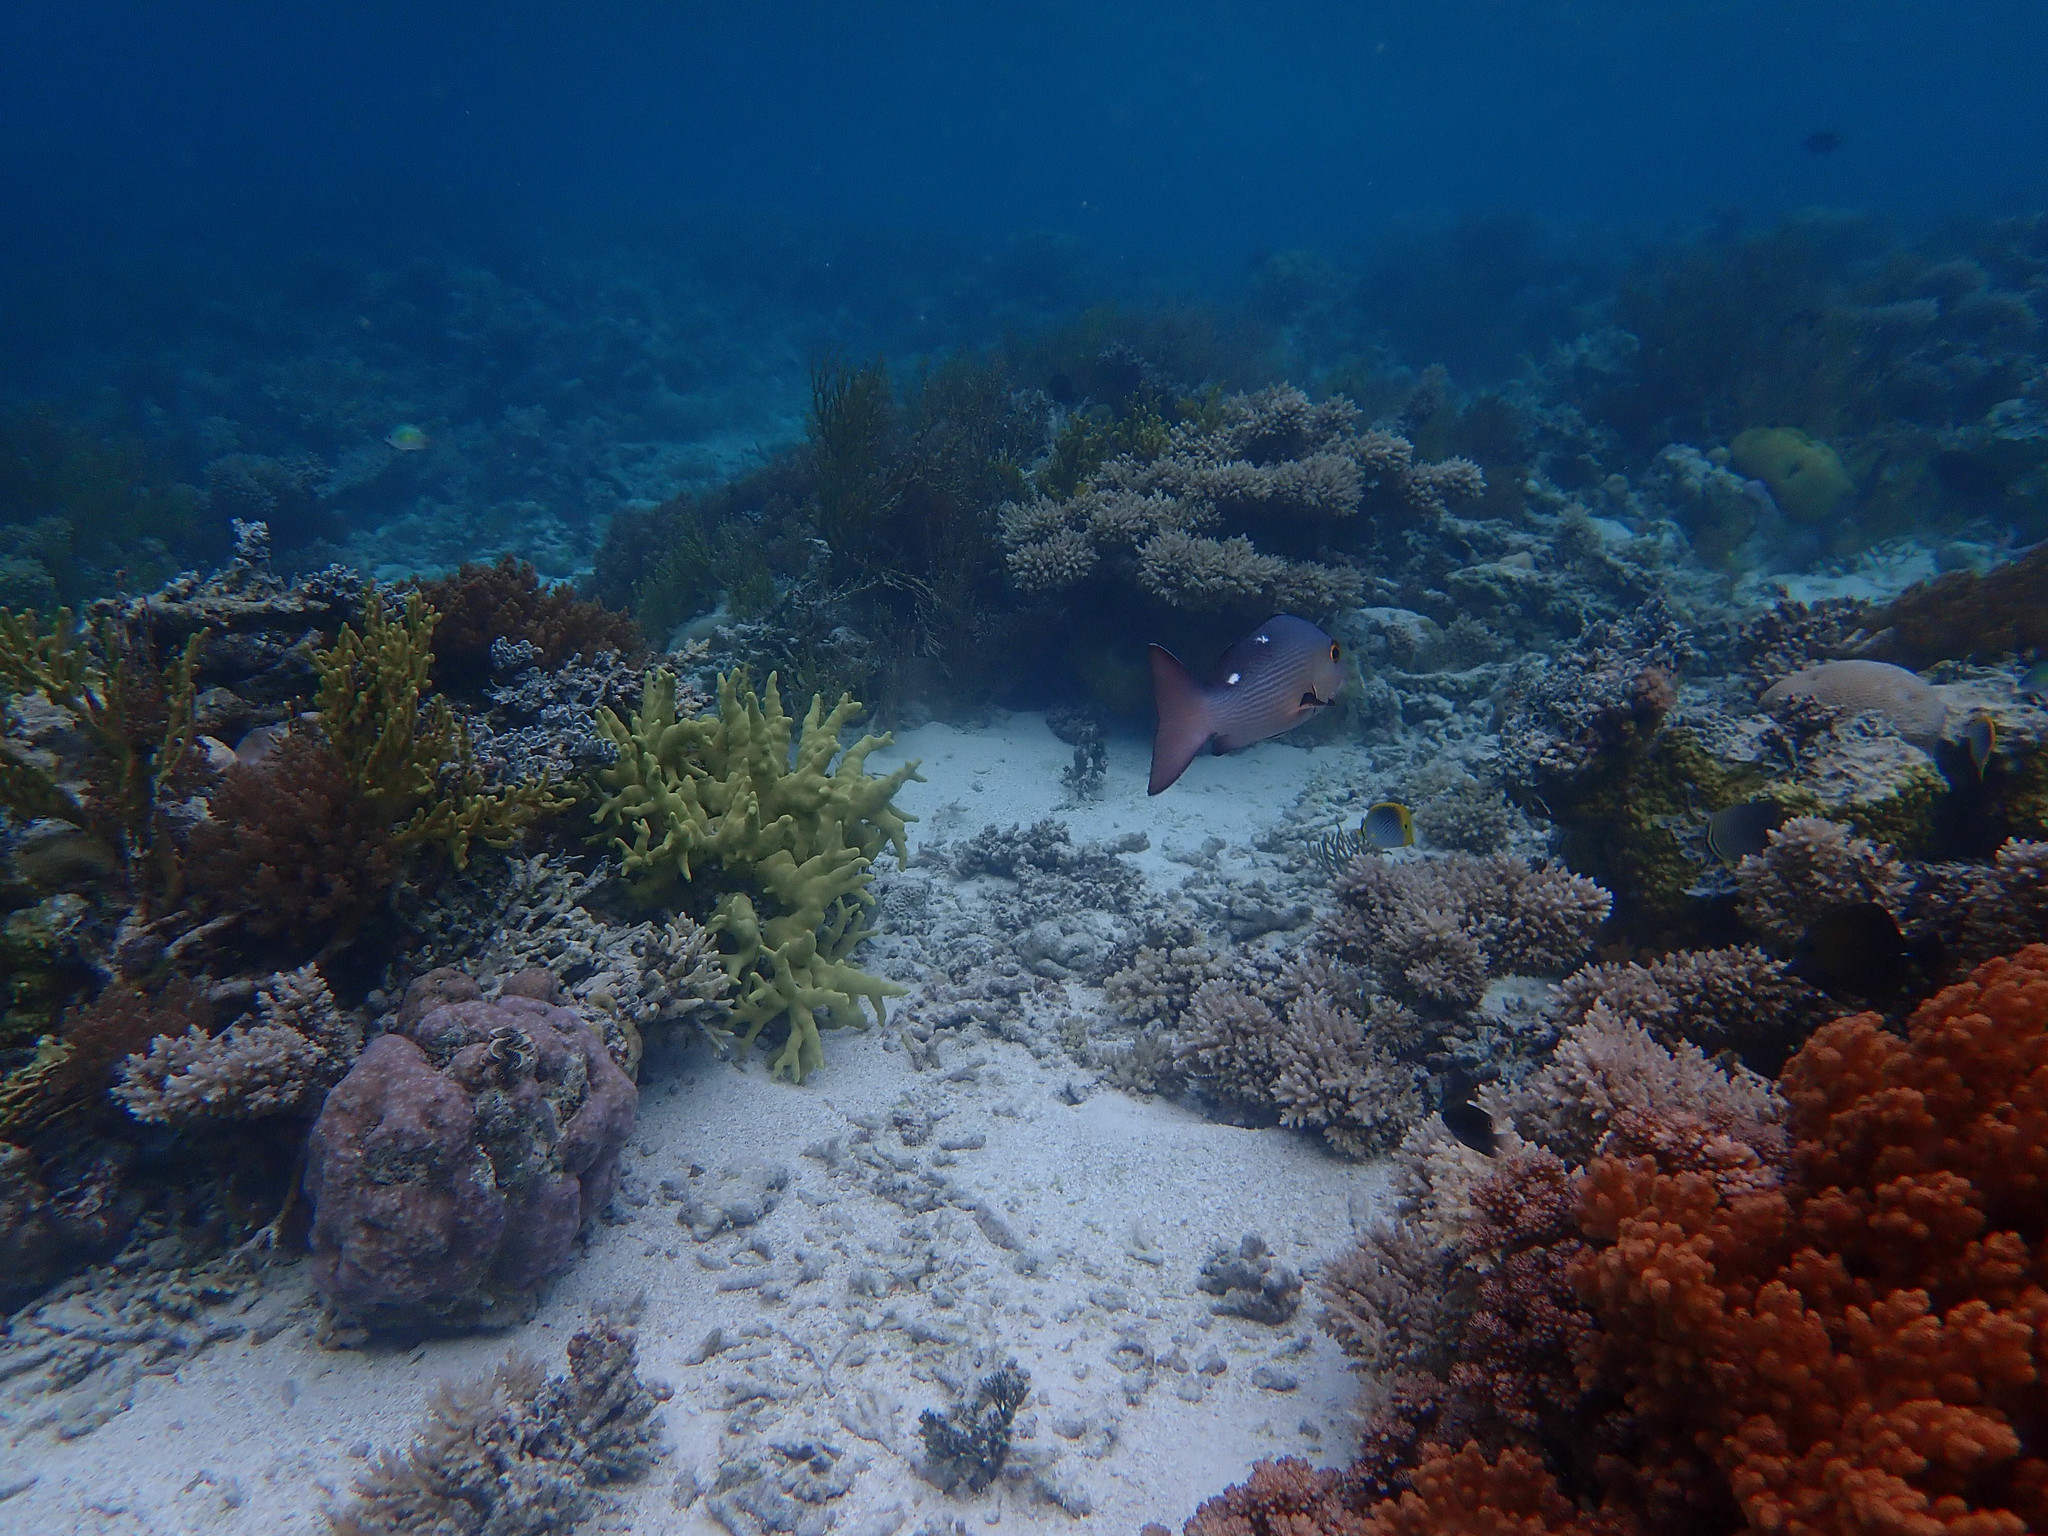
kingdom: Animalia
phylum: Chordata
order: Perciformes
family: Lutjanidae
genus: Lutjanus
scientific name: Lutjanus bohar
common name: Red bass
